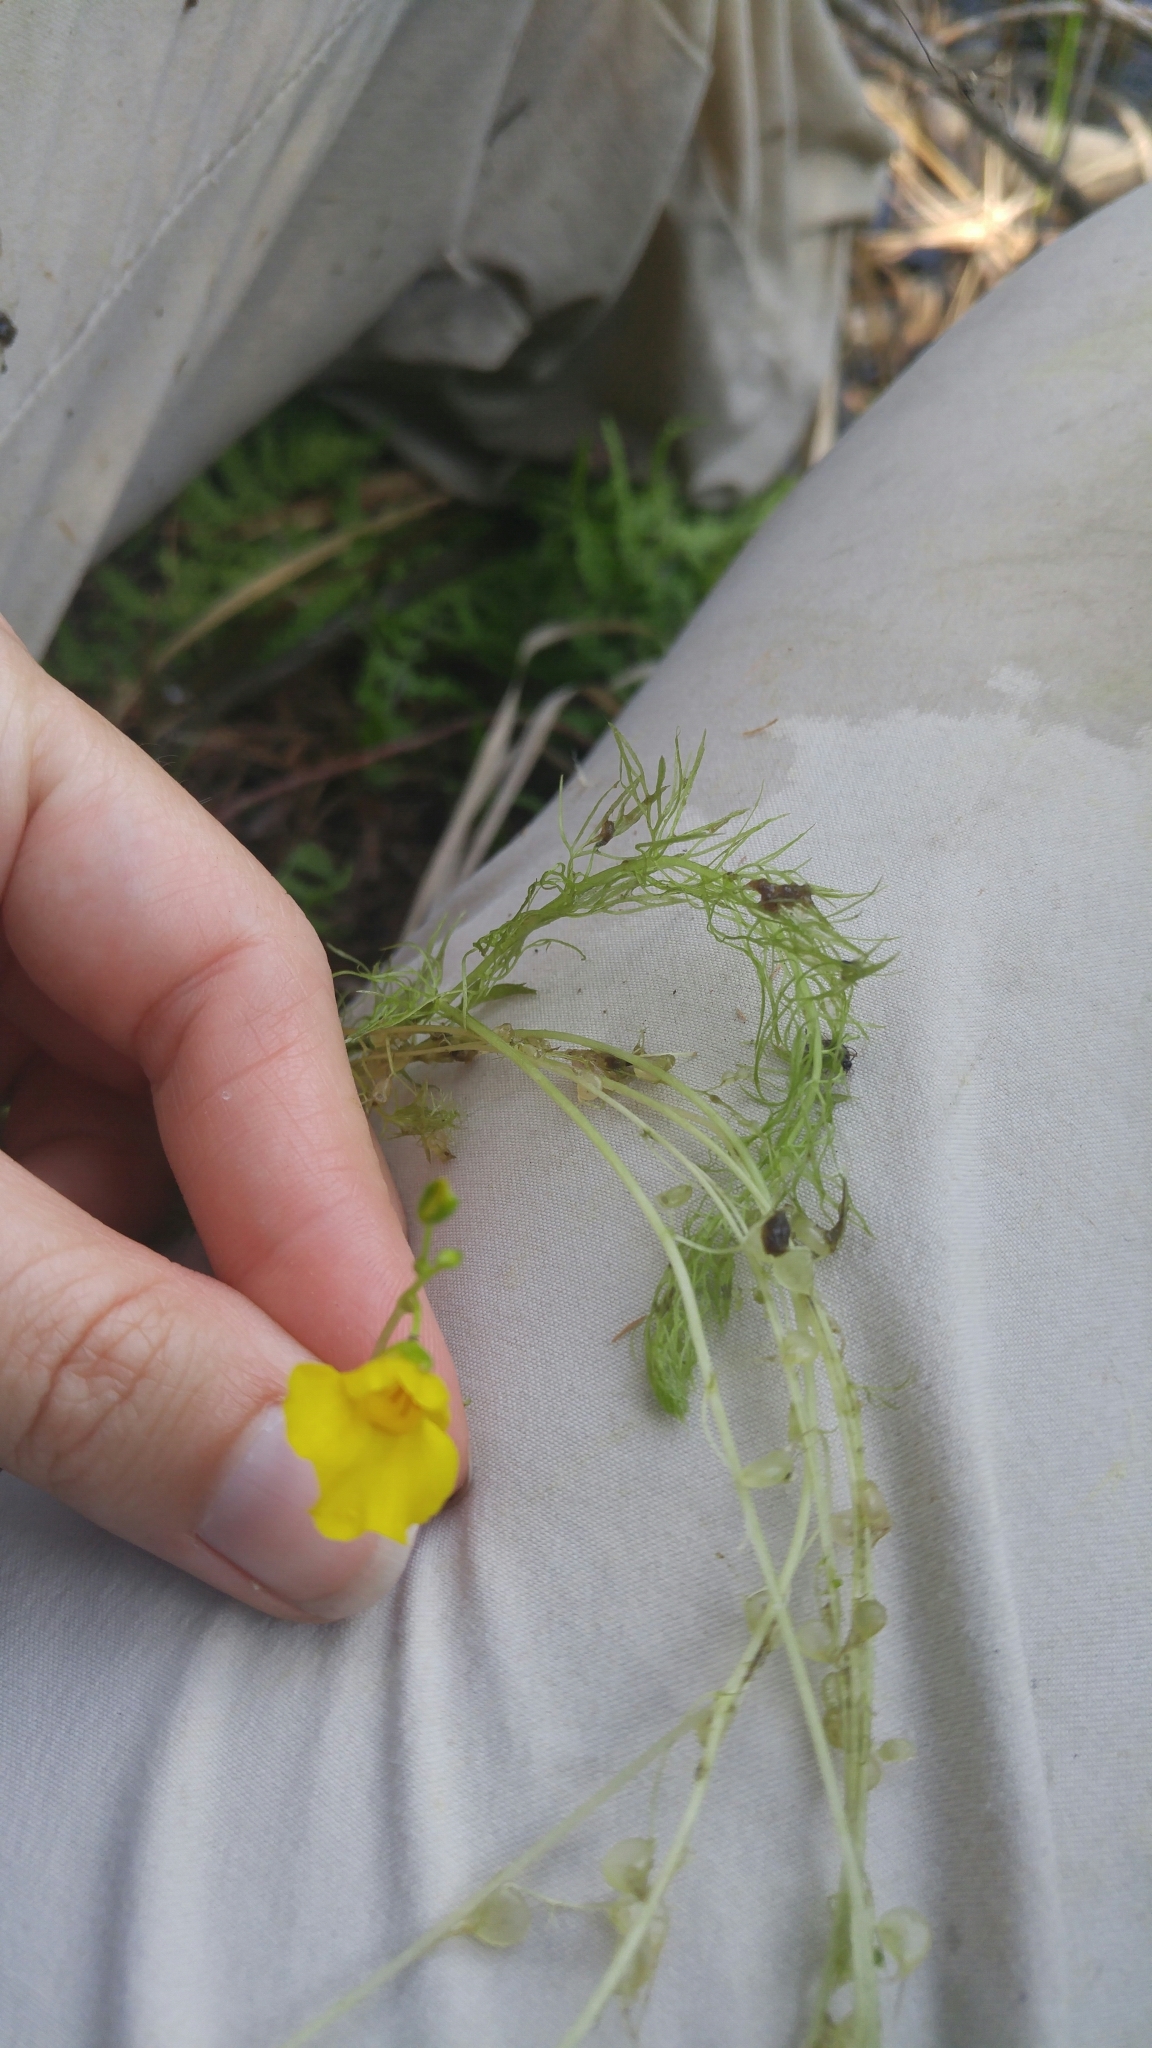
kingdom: Plantae
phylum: Tracheophyta
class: Magnoliopsida
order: Lamiales
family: Lentibulariaceae
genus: Utricularia
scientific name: Utricularia intermedia
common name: Intermediate bladderwort
